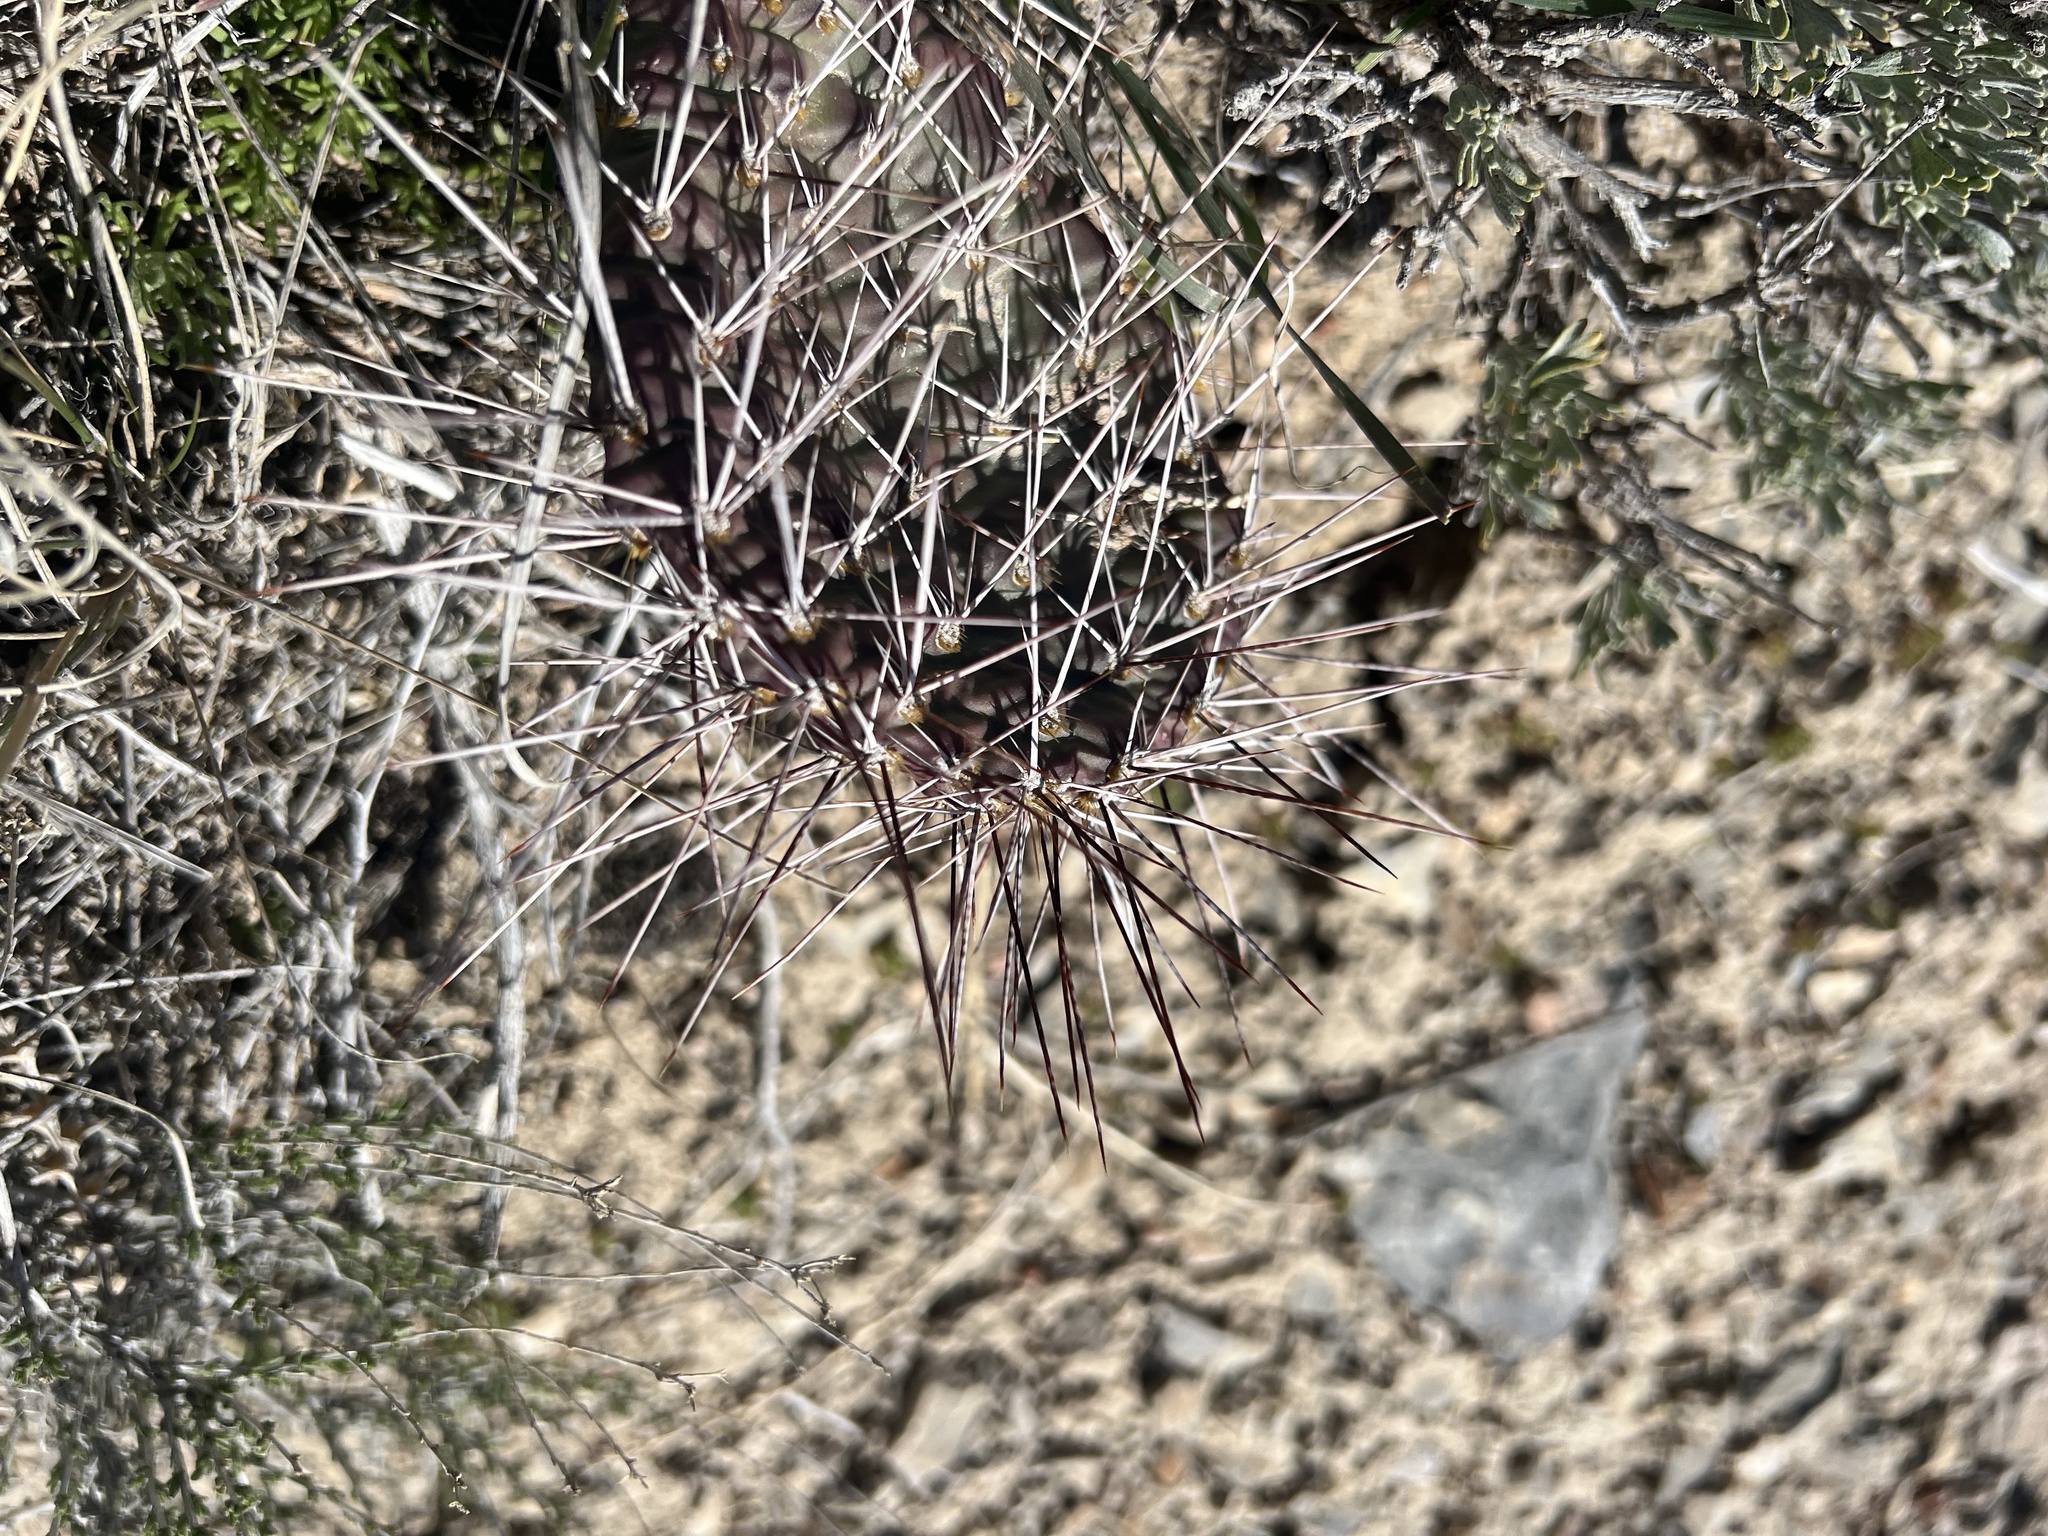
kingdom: Plantae
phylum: Tracheophyta
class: Magnoliopsida
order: Caryophyllales
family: Cactaceae
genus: Opuntia
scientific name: Opuntia polyacantha
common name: Plains prickly-pear
